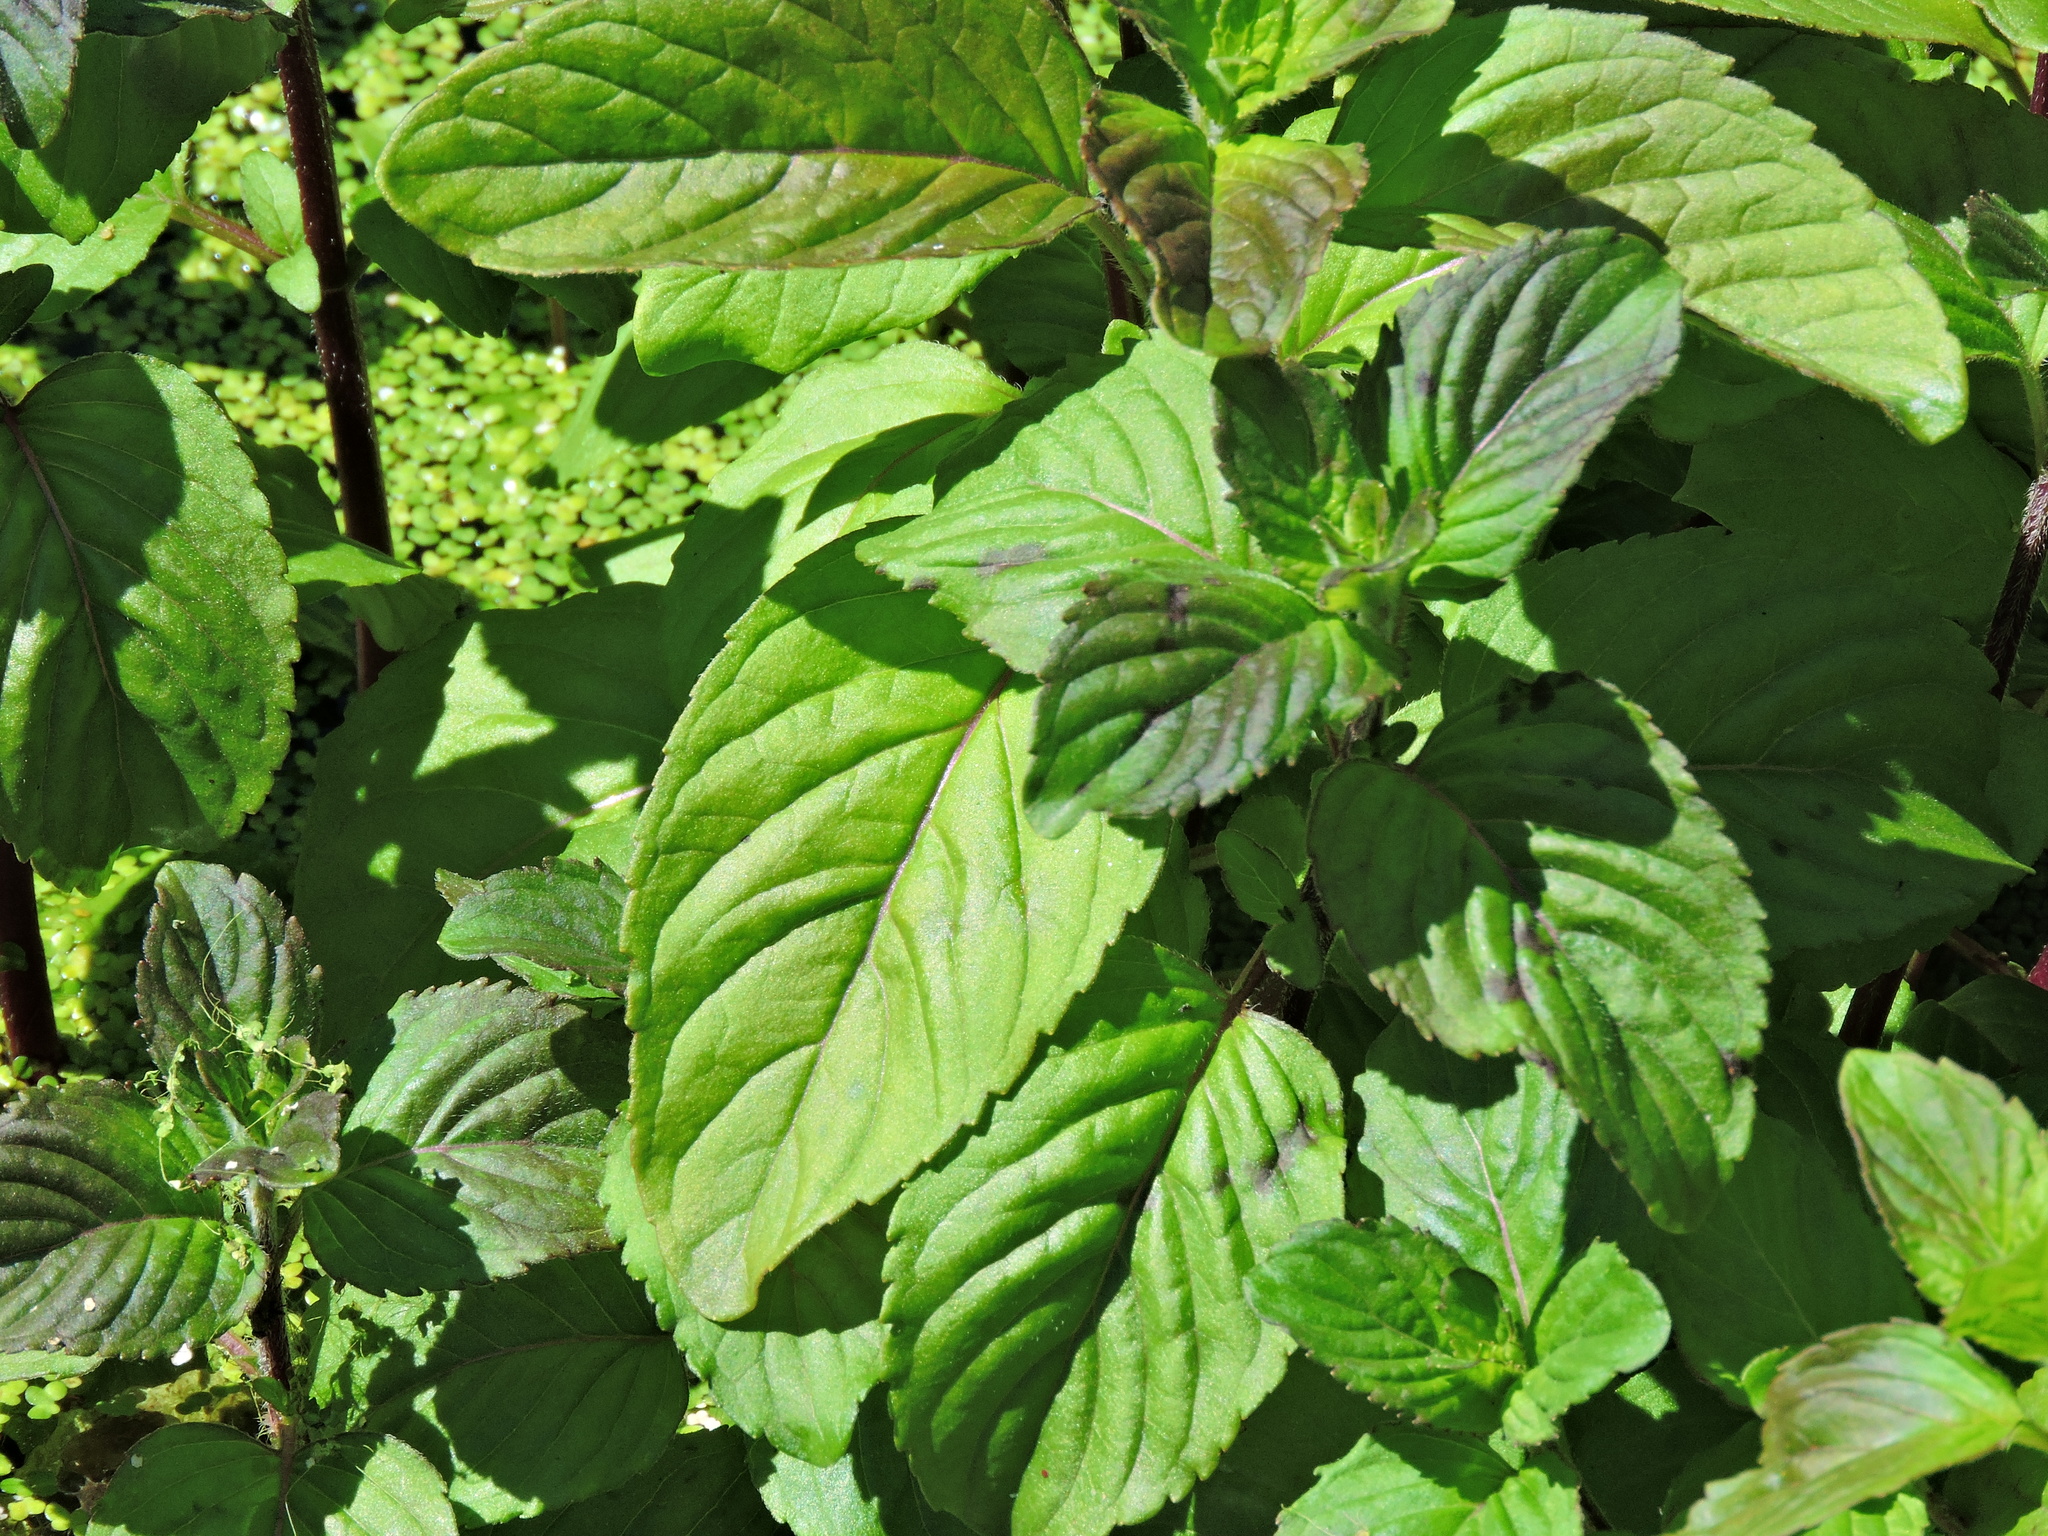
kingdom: Plantae
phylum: Tracheophyta
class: Magnoliopsida
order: Lamiales
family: Lamiaceae
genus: Mentha
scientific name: Mentha aquatica
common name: Water mint
